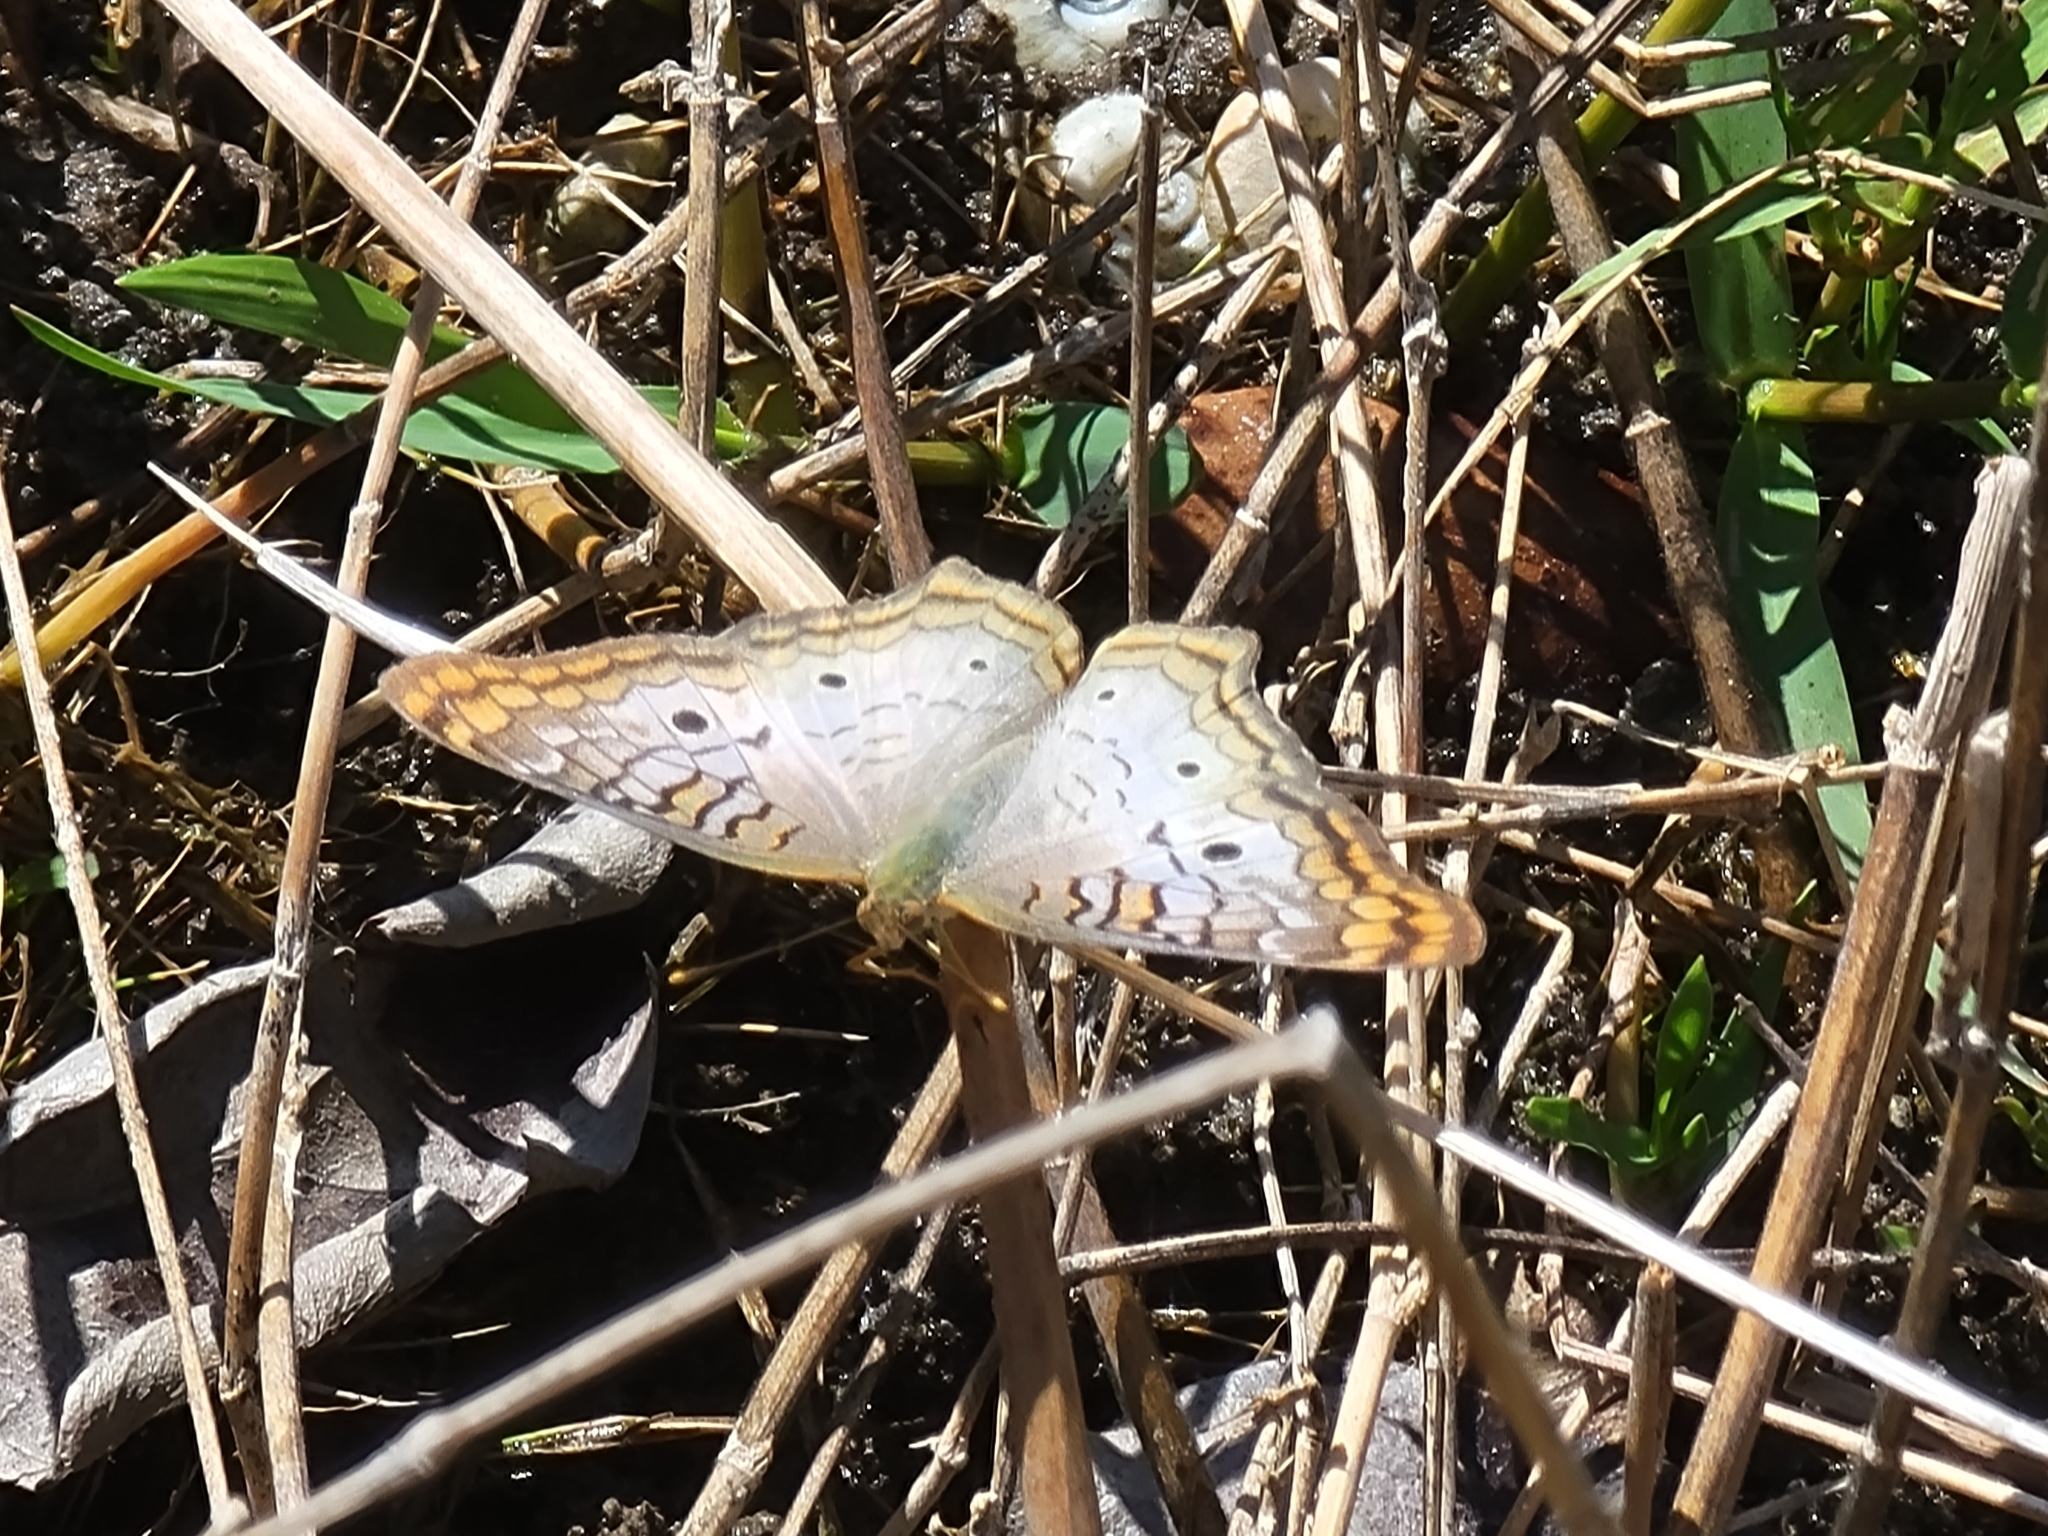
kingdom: Animalia
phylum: Arthropoda
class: Insecta
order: Lepidoptera
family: Nymphalidae
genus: Anartia
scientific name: Anartia jatrophae
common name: White peacock
